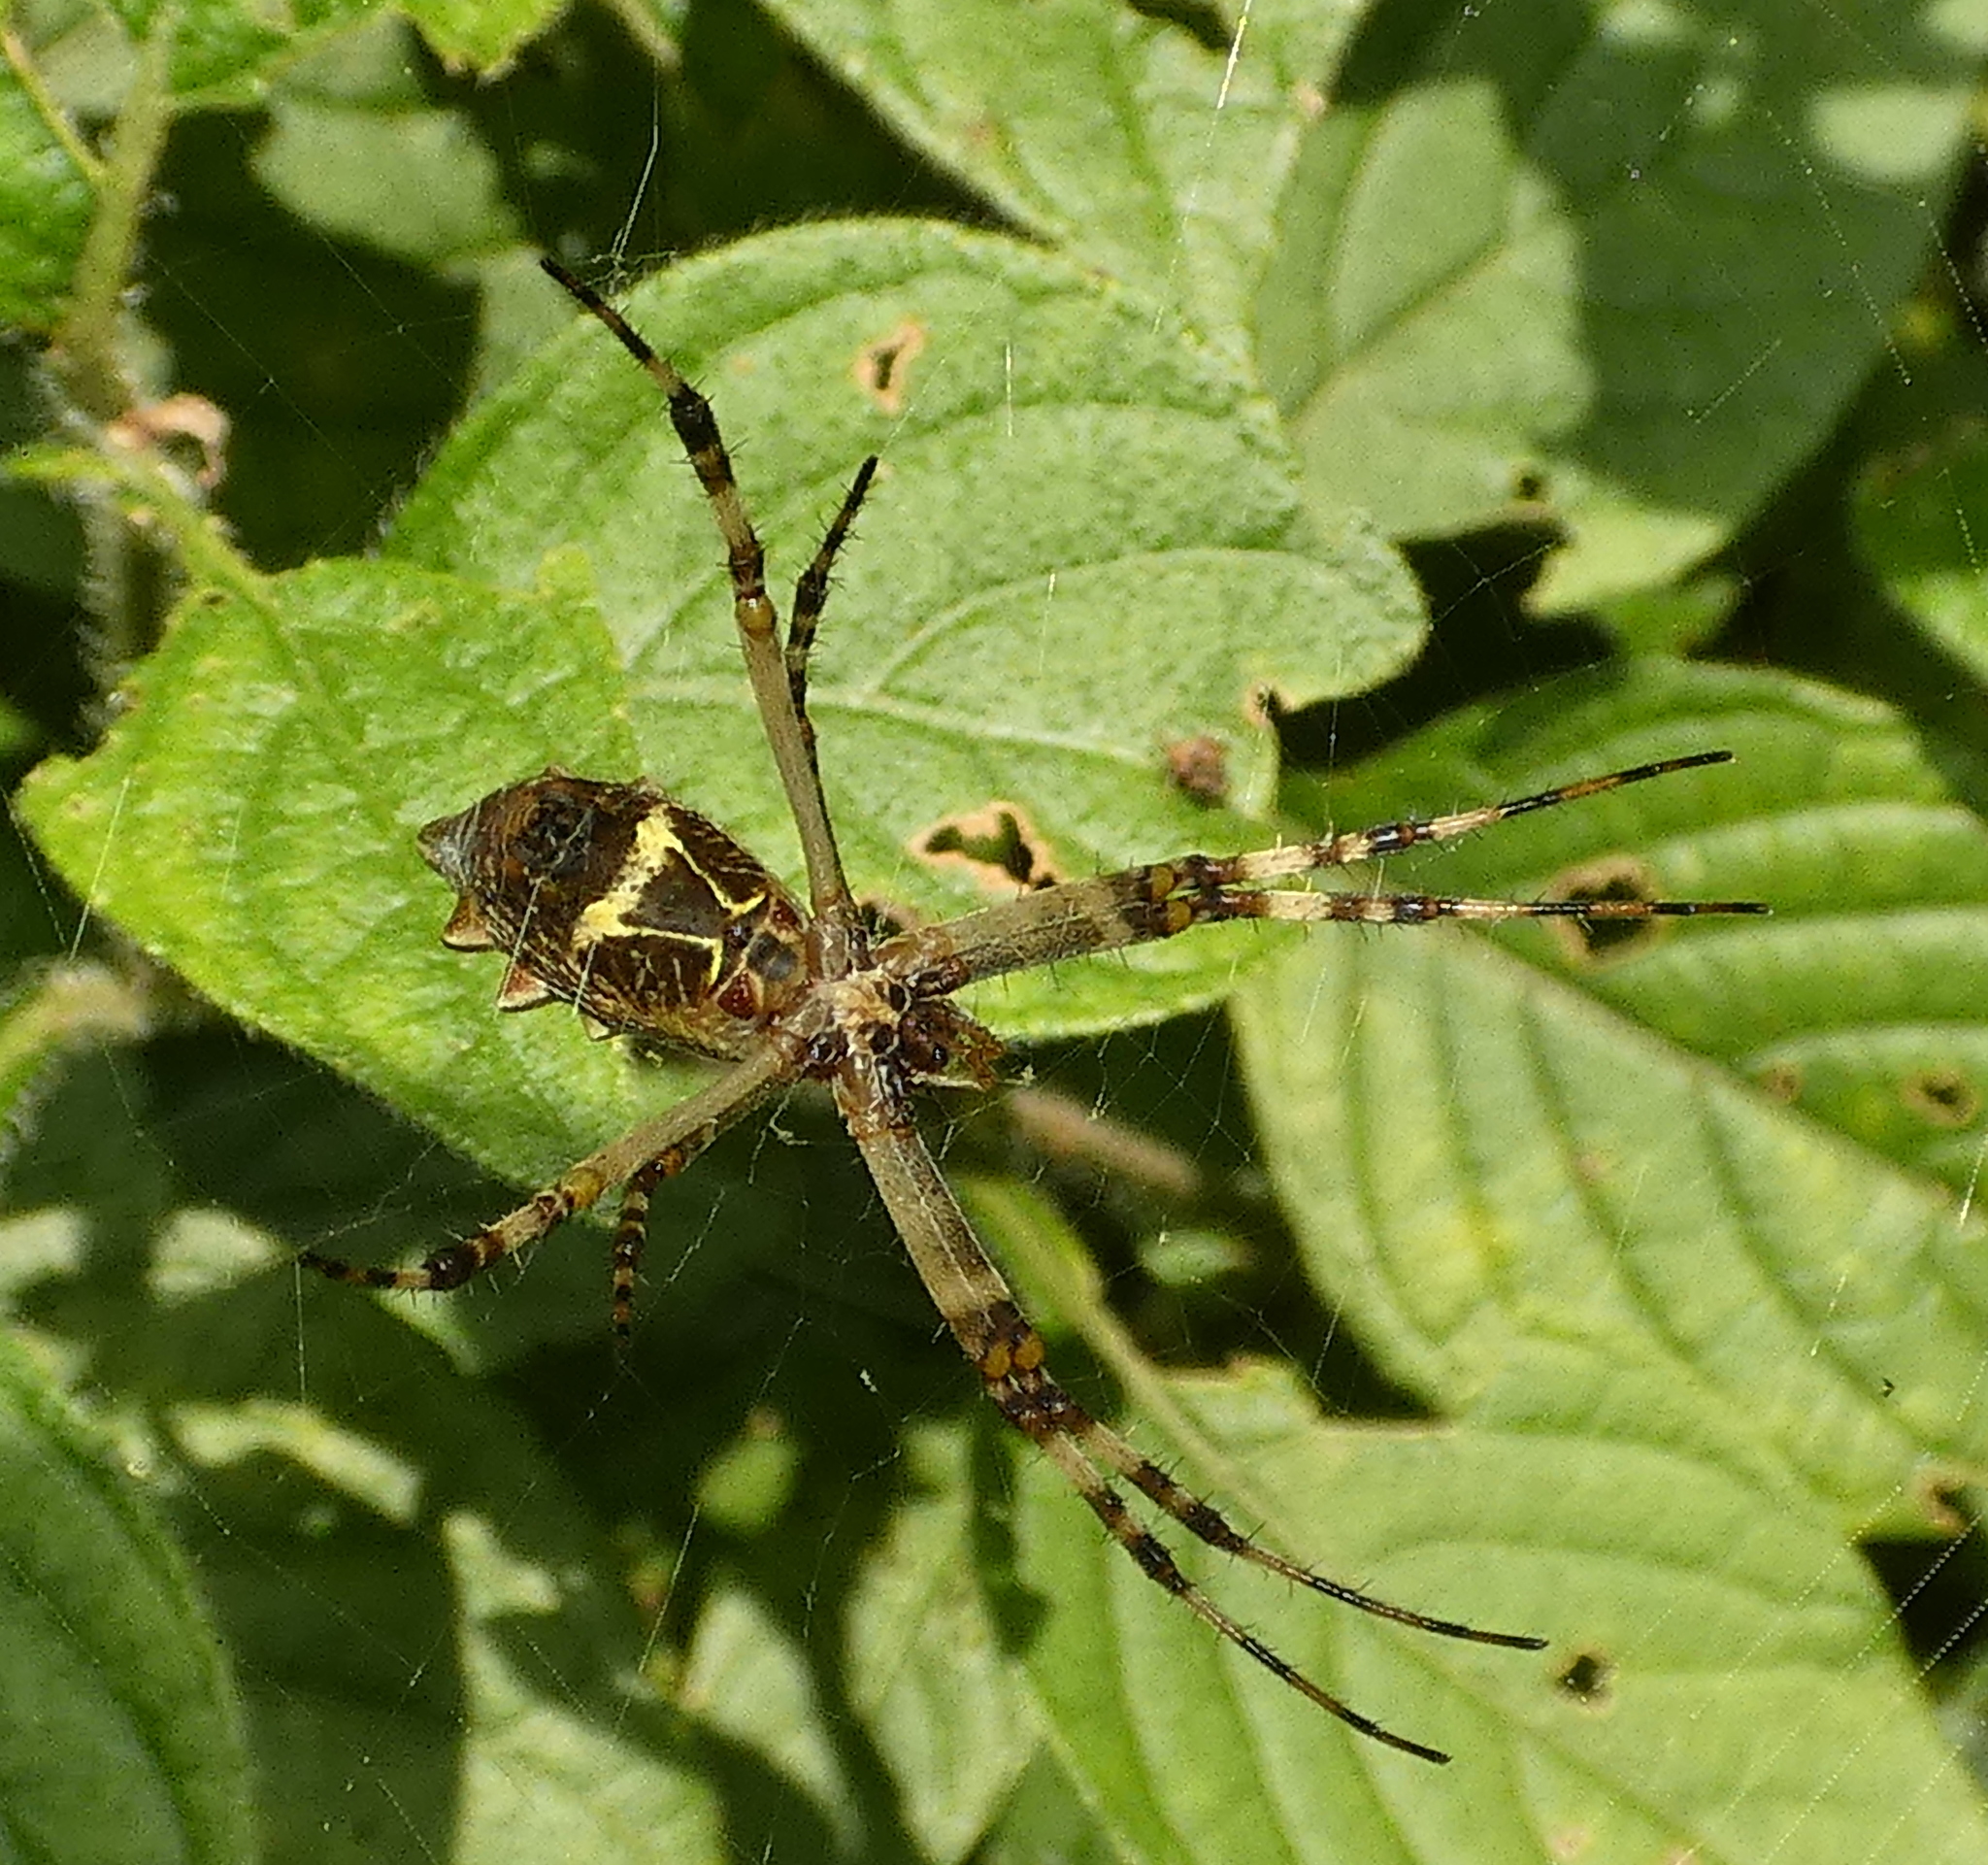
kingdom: Animalia
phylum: Arthropoda
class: Arachnida
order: Araneae
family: Araneidae
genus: Argiope
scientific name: Argiope argentata
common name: Orb weavers
